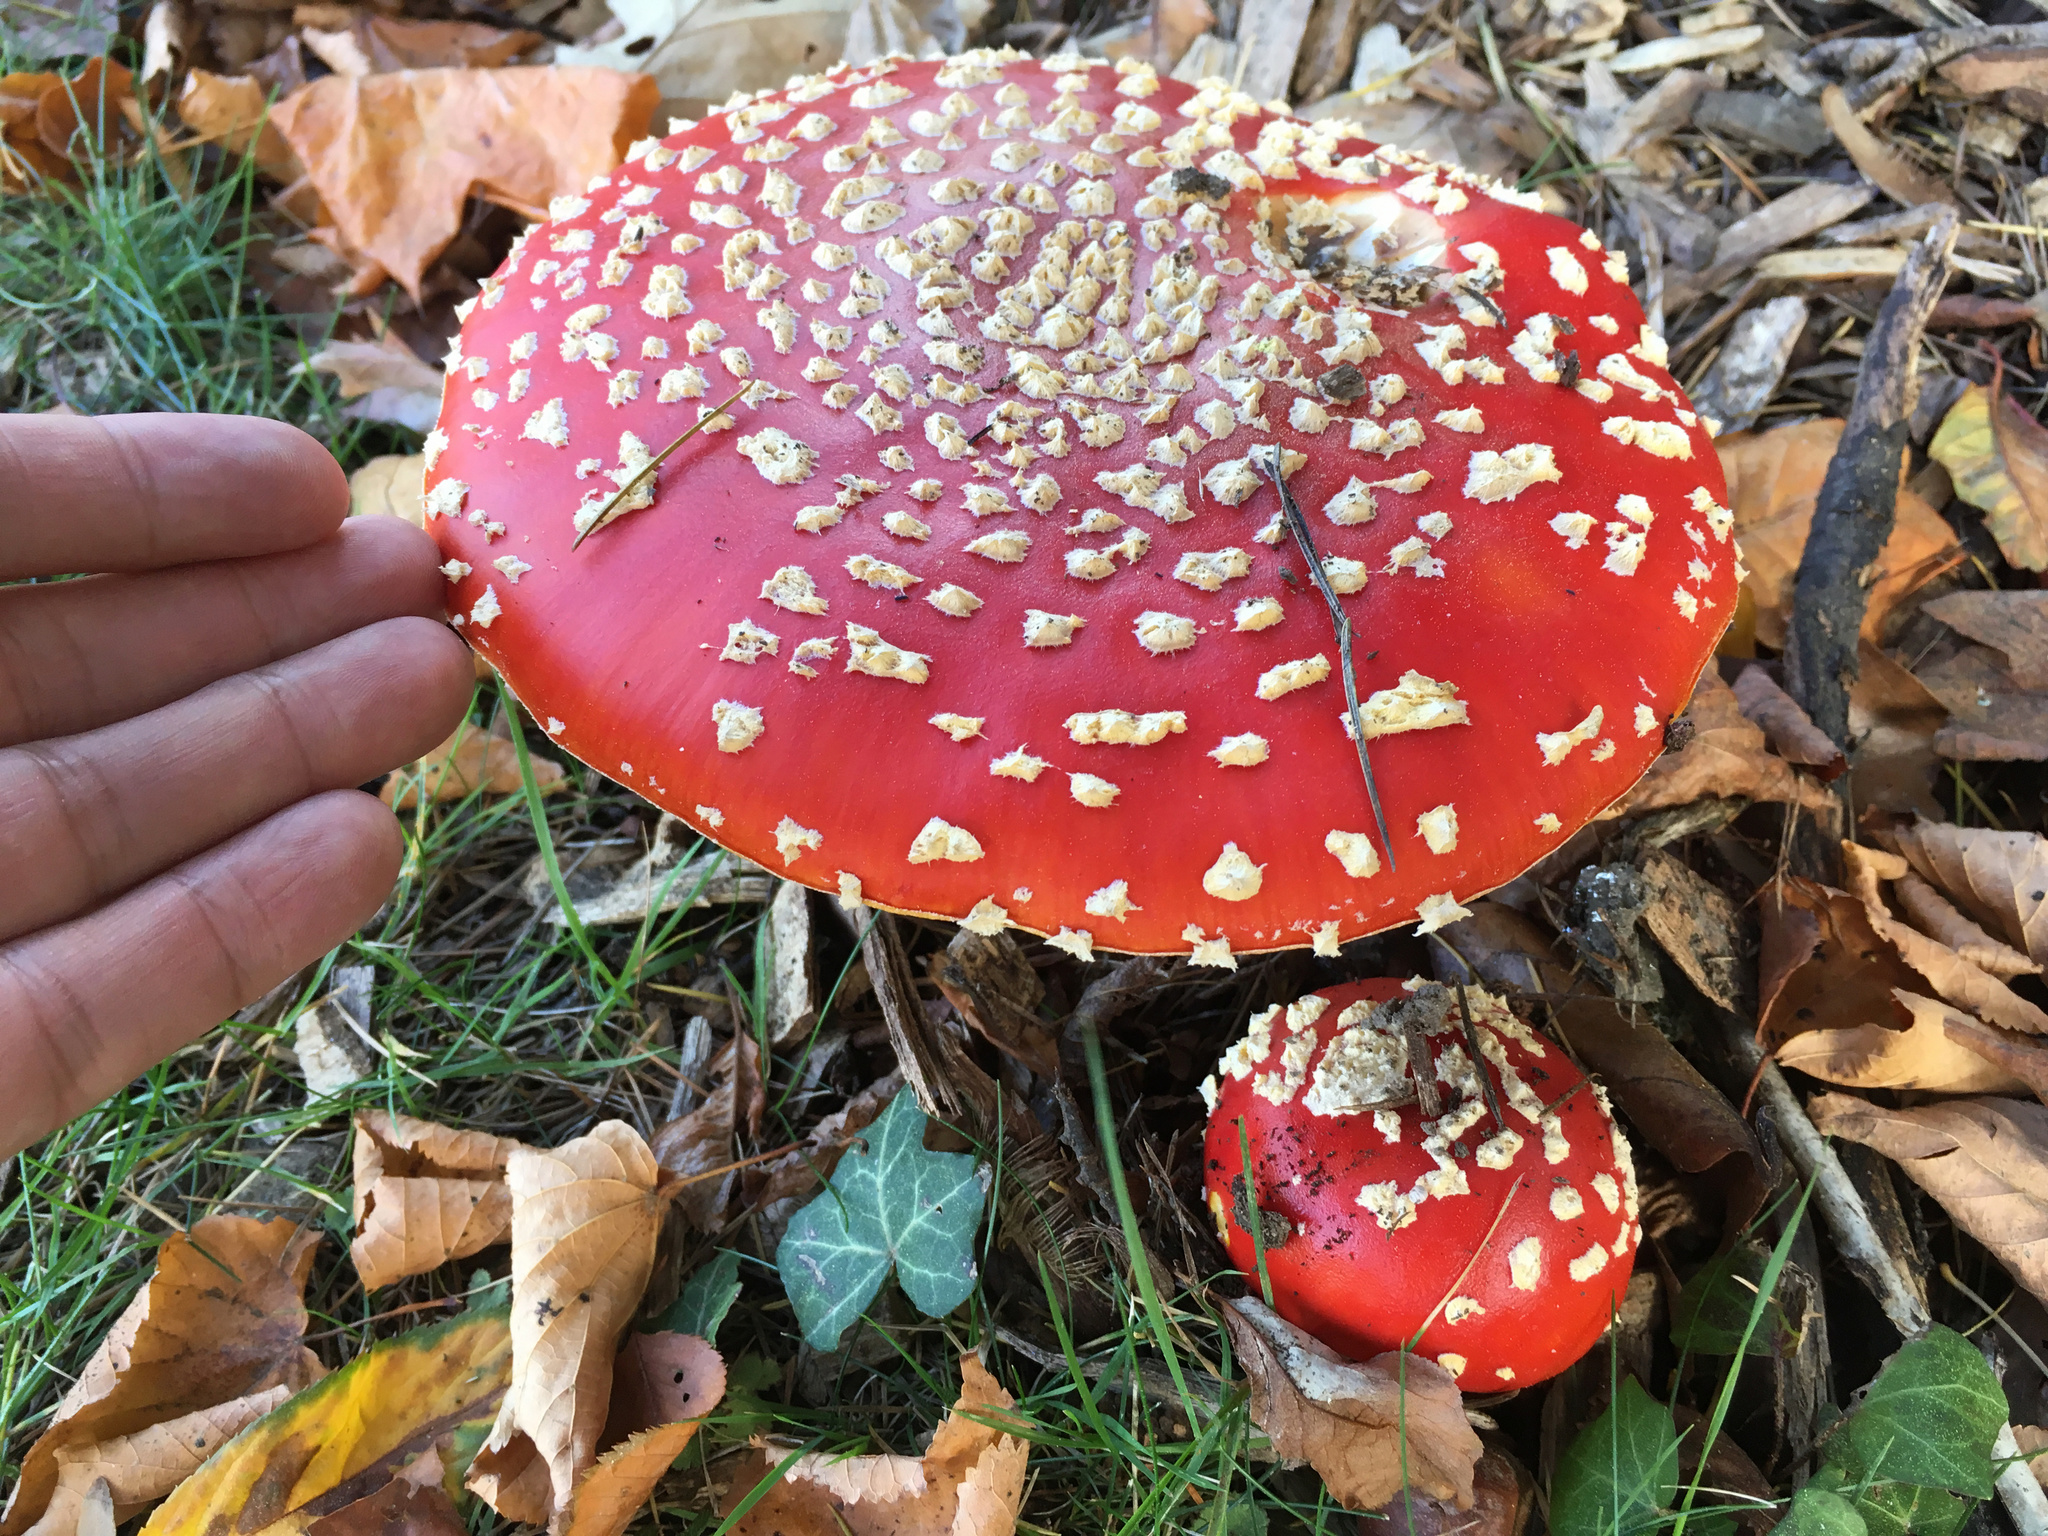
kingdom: Fungi
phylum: Basidiomycota
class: Agaricomycetes
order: Agaricales
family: Amanitaceae
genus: Amanita
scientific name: Amanita muscaria
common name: Fly agaric
